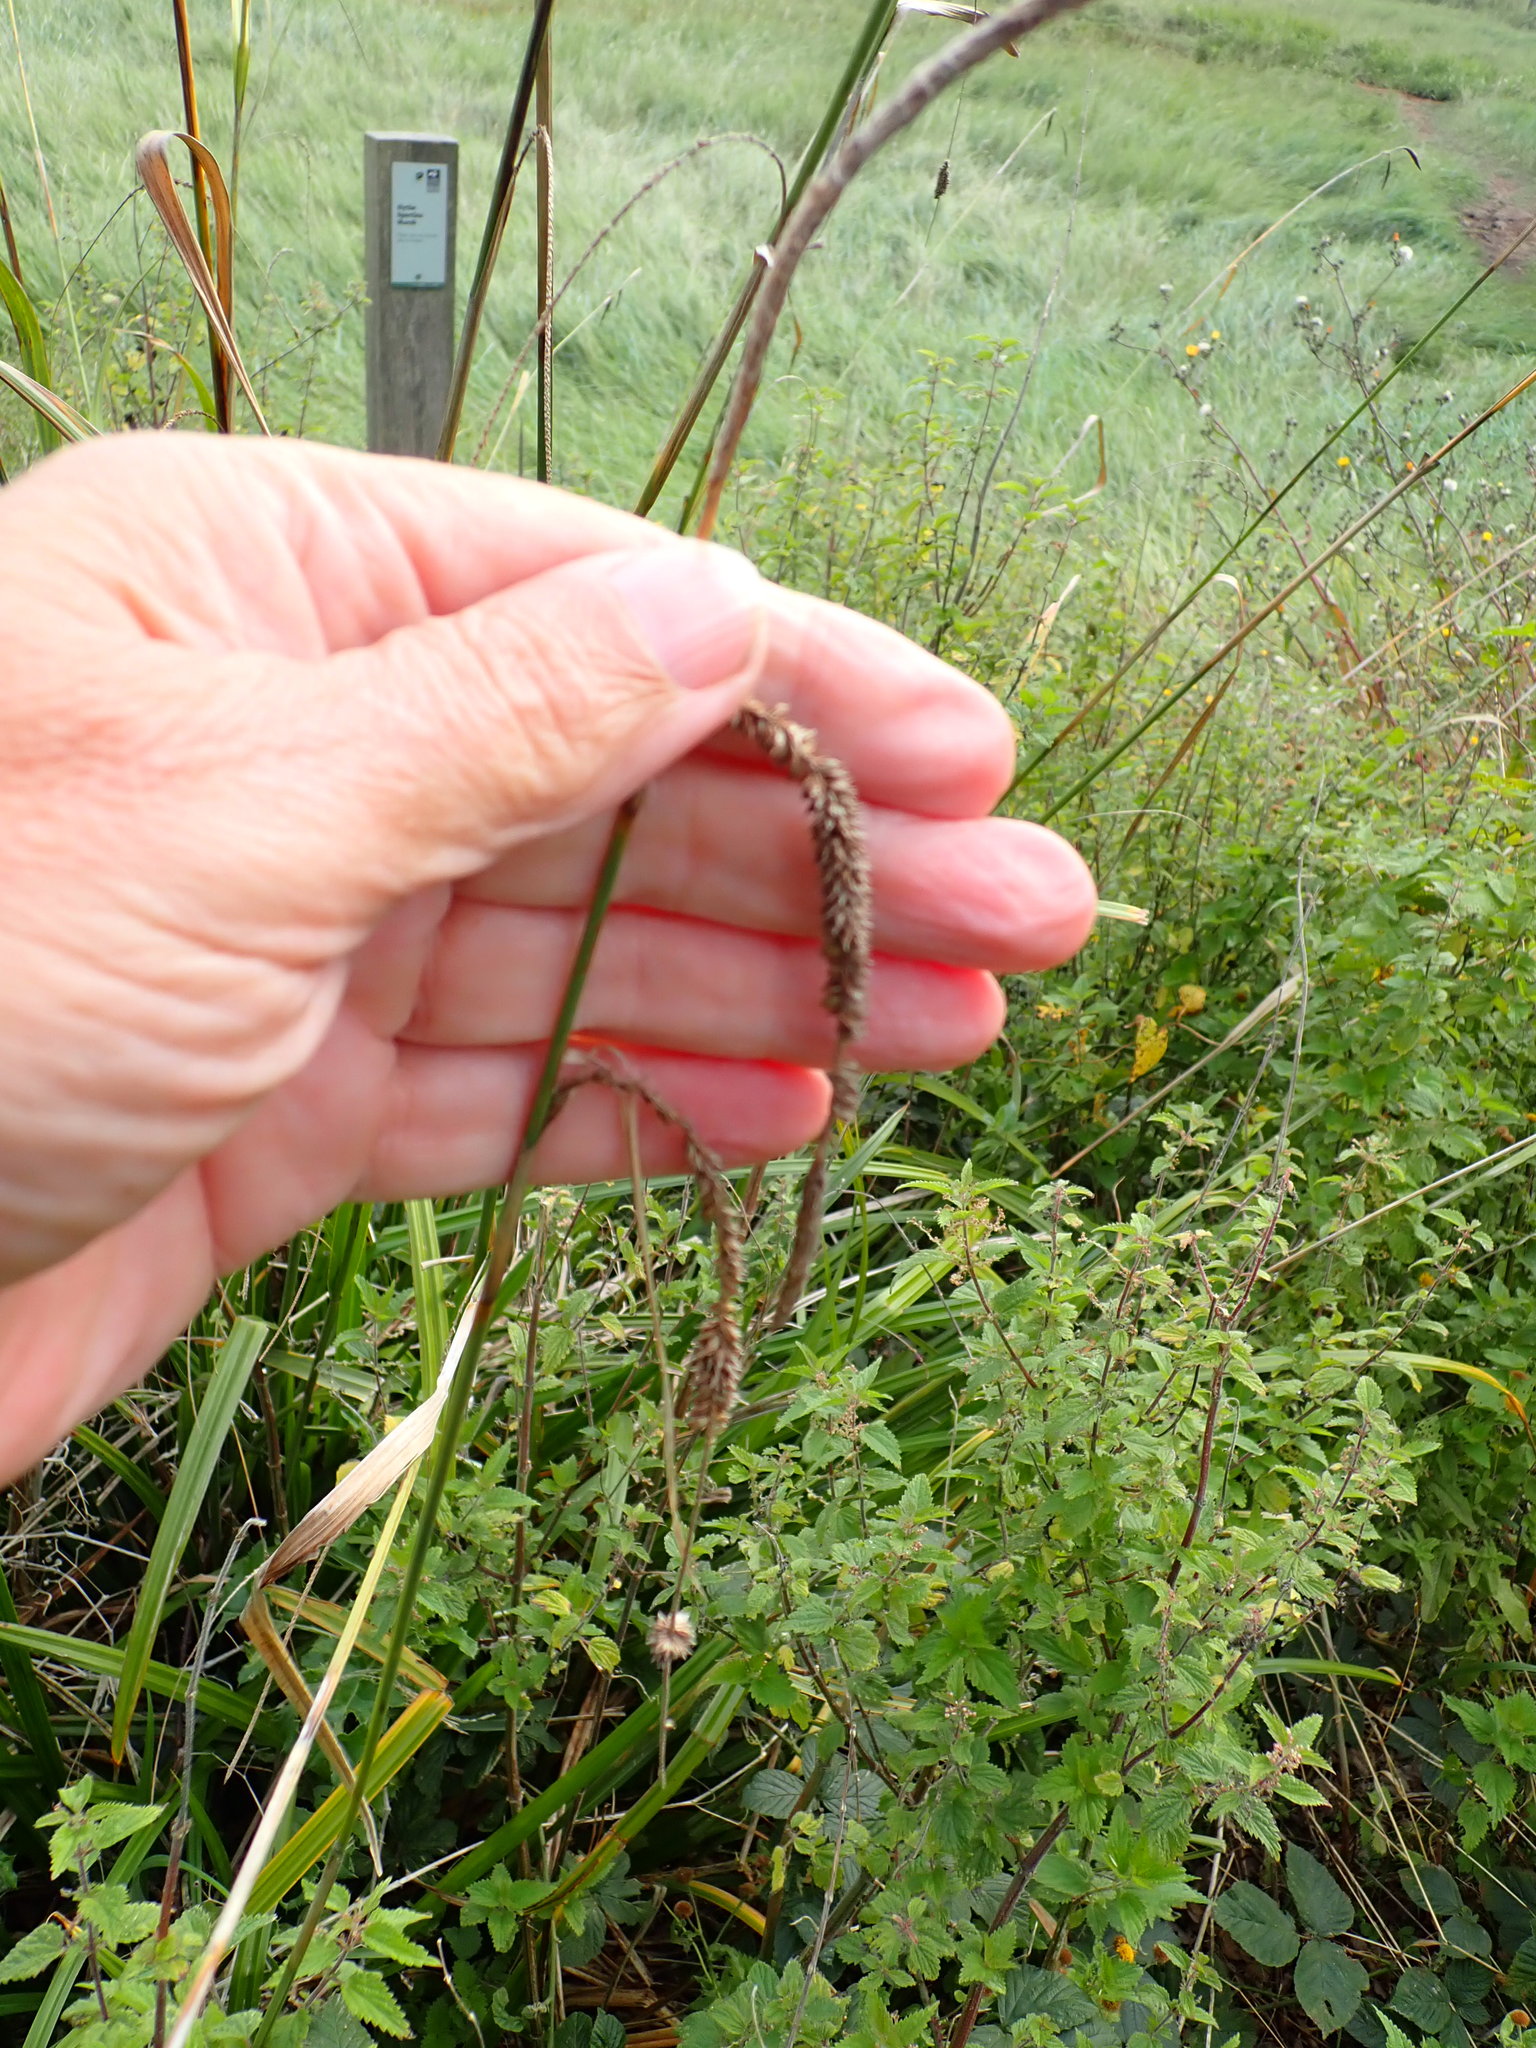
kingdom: Plantae
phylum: Tracheophyta
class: Liliopsida
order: Poales
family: Cyperaceae
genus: Carex
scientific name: Carex pendula
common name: Pendulous sedge
